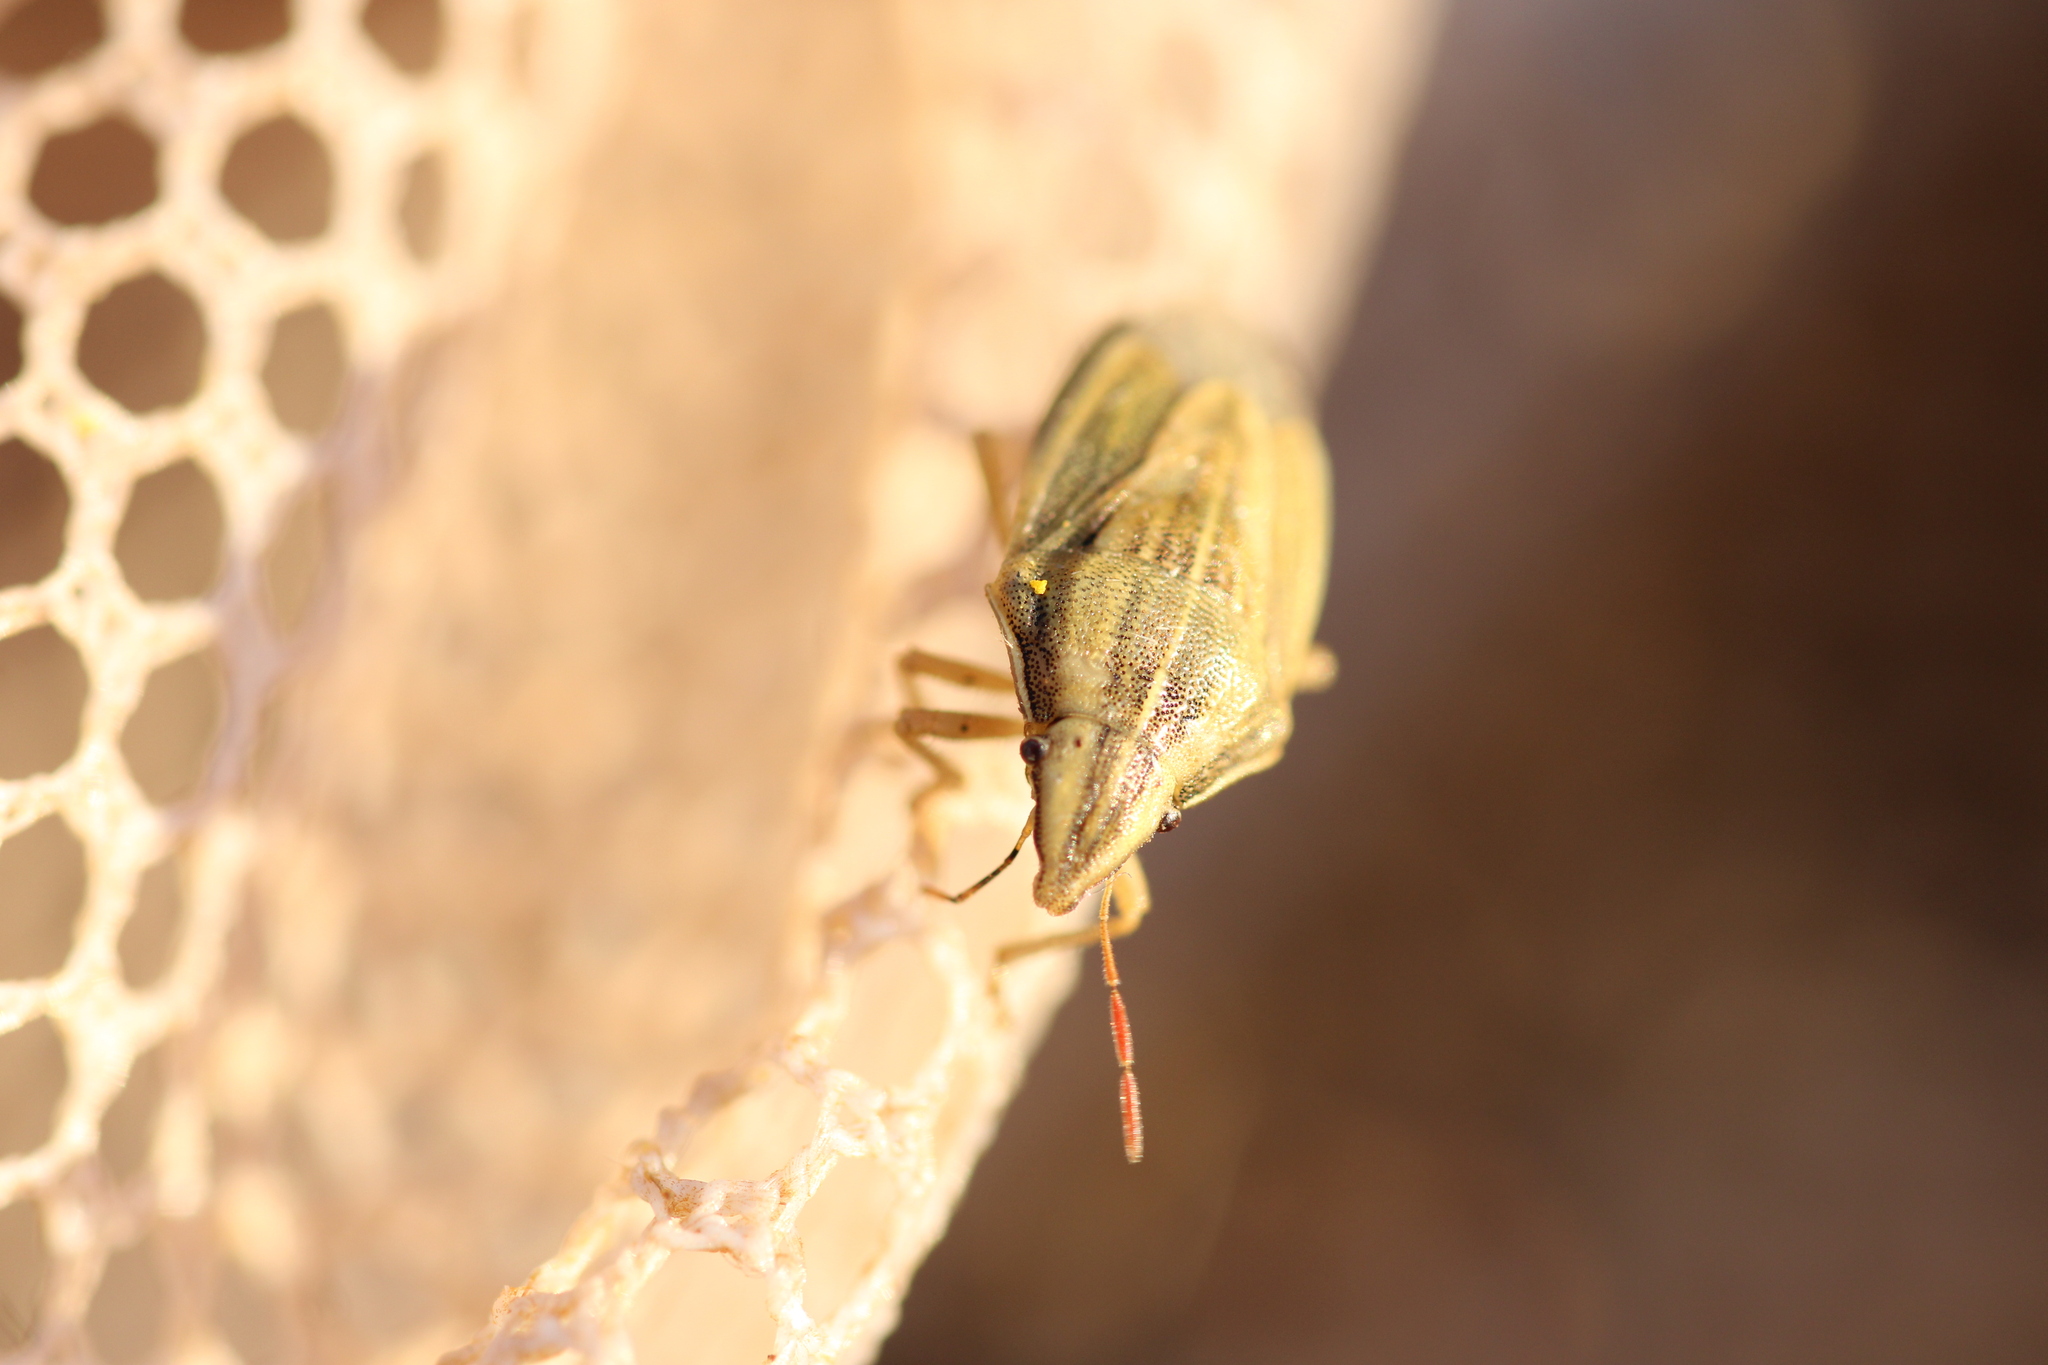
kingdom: Animalia
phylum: Arthropoda
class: Insecta
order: Hemiptera
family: Pentatomidae
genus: Aelia
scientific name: Aelia acuminata
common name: Bishop's mitre
